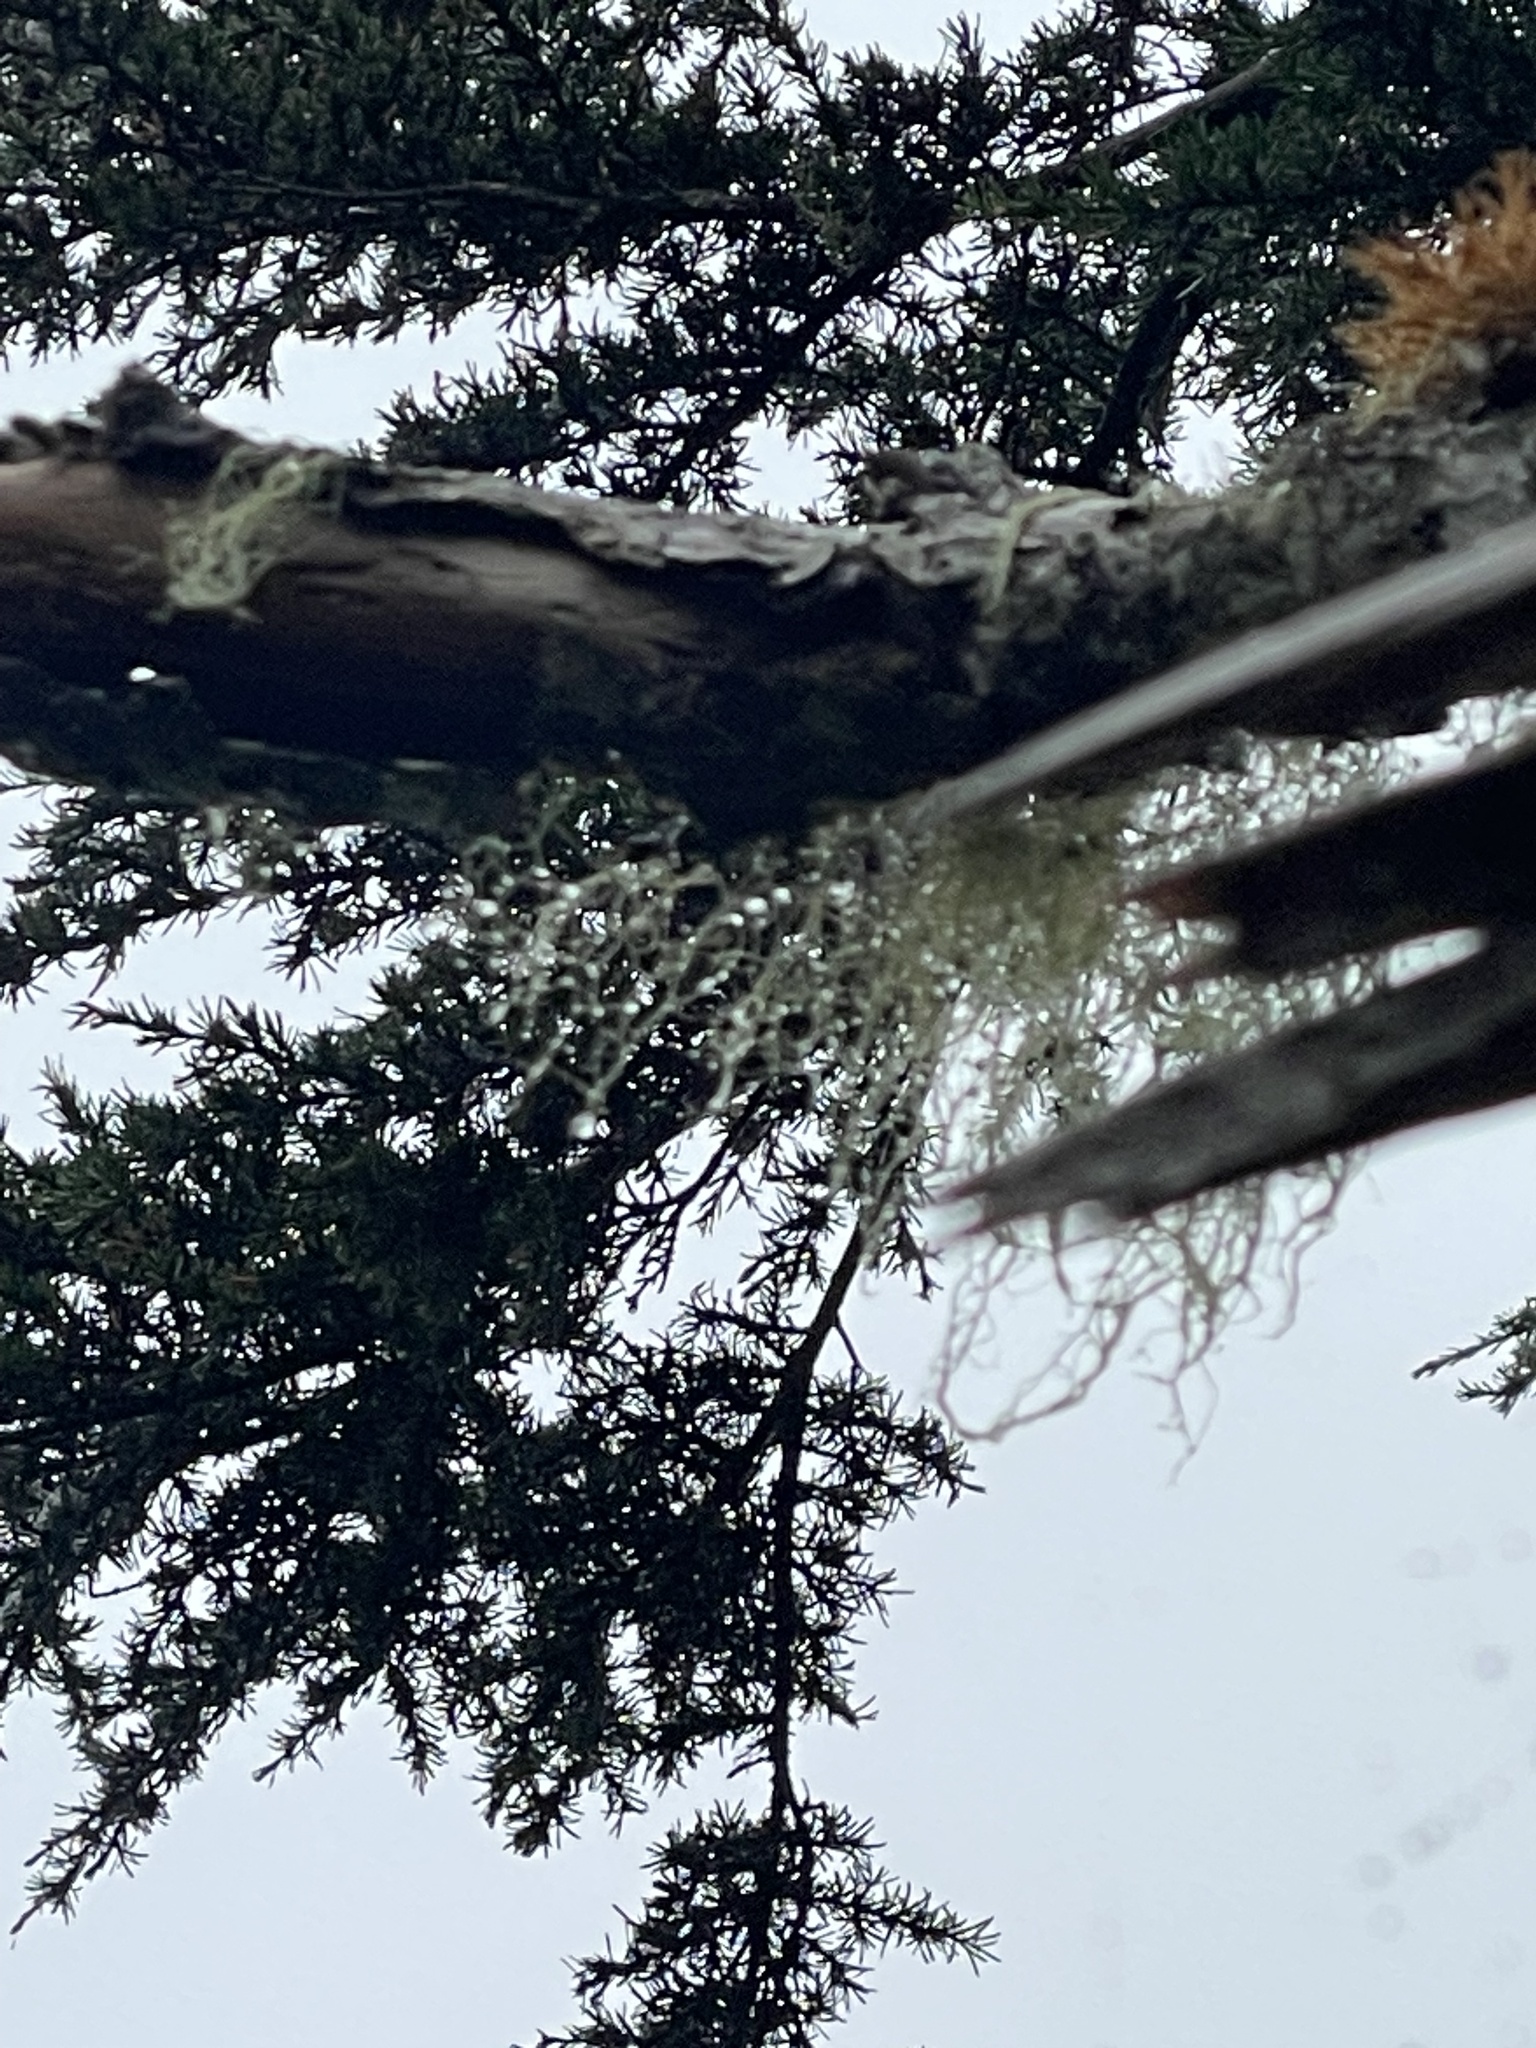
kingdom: Fungi
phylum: Ascomycota
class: Lecanoromycetes
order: Lecanorales
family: Parmeliaceae
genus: Alectoria
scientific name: Alectoria sarmentosa
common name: Witch's hair
